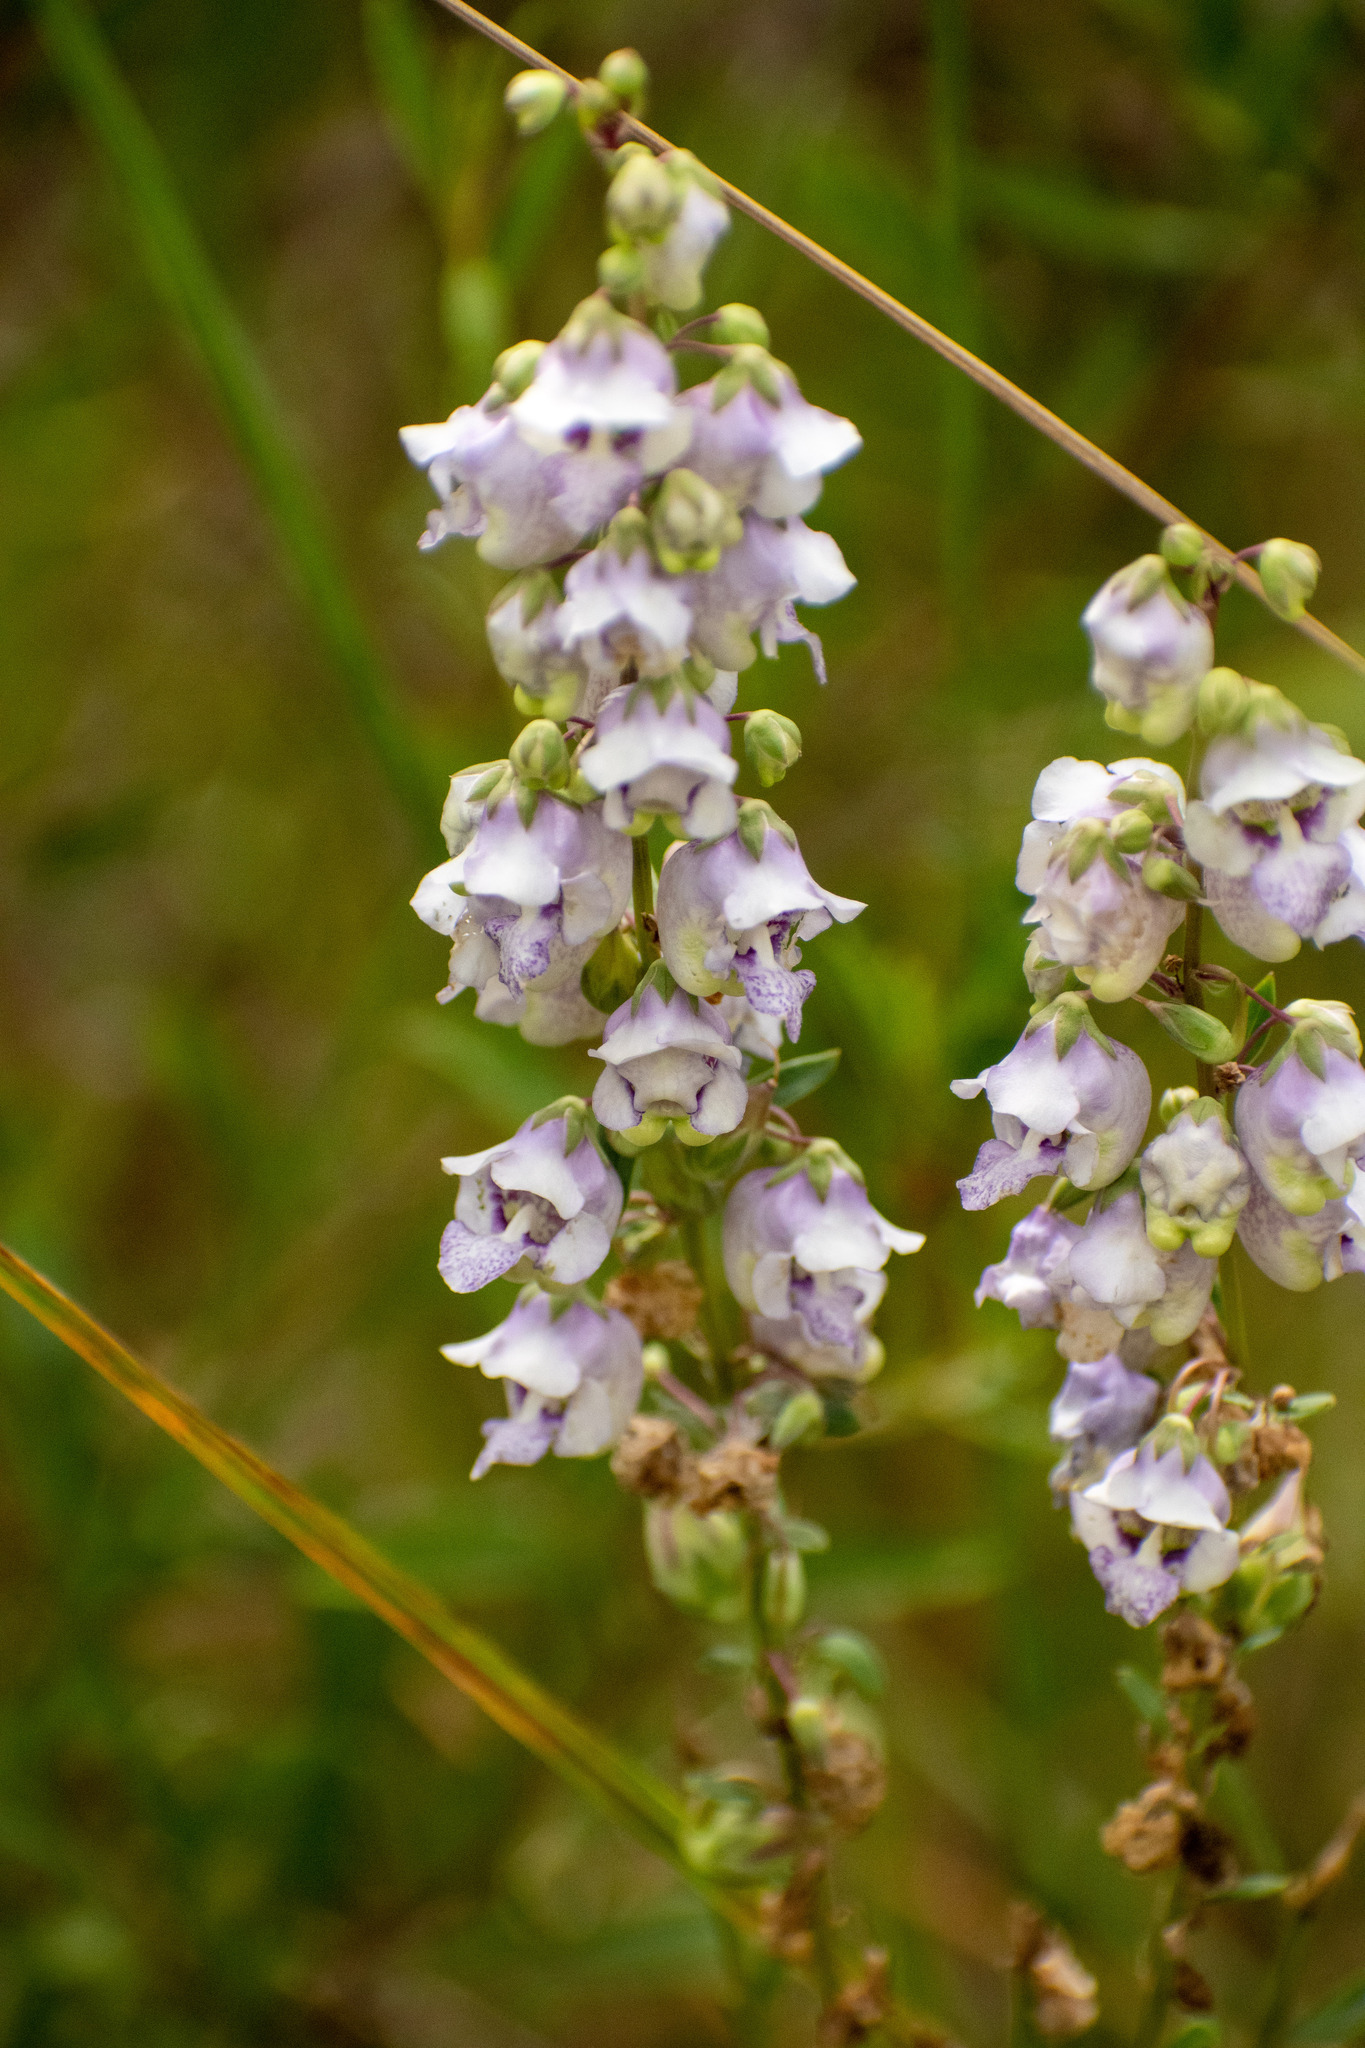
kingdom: Plantae
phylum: Tracheophyta
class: Magnoliopsida
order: Lamiales
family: Plantaginaceae
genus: Angelonia
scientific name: Angelonia integerrima
